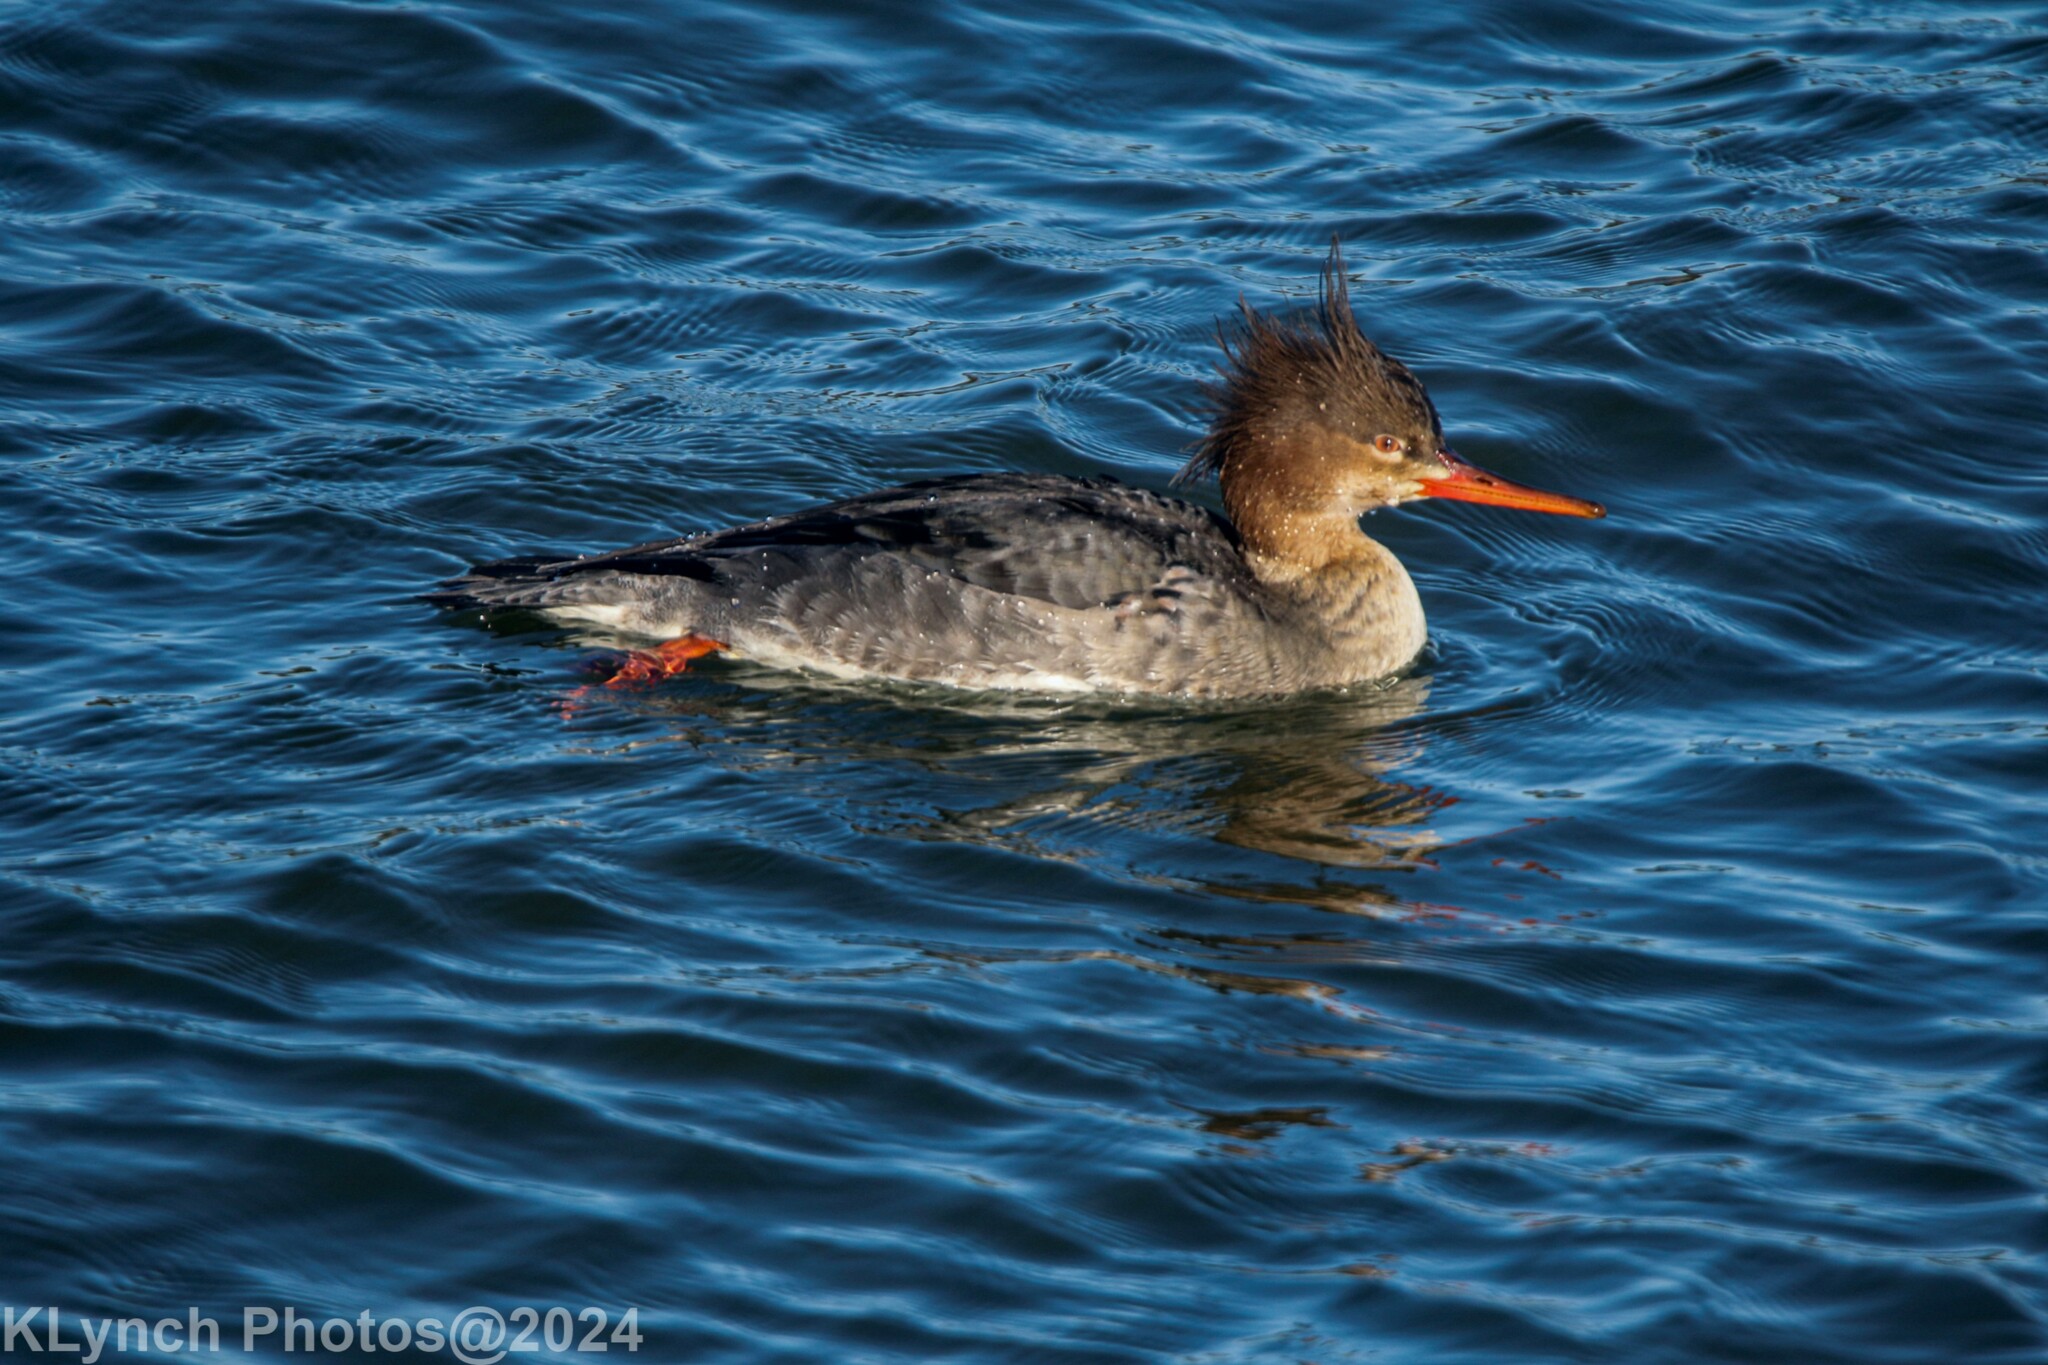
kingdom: Animalia
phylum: Chordata
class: Aves
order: Anseriformes
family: Anatidae
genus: Mergus
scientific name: Mergus serrator
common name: Red-breasted merganser
